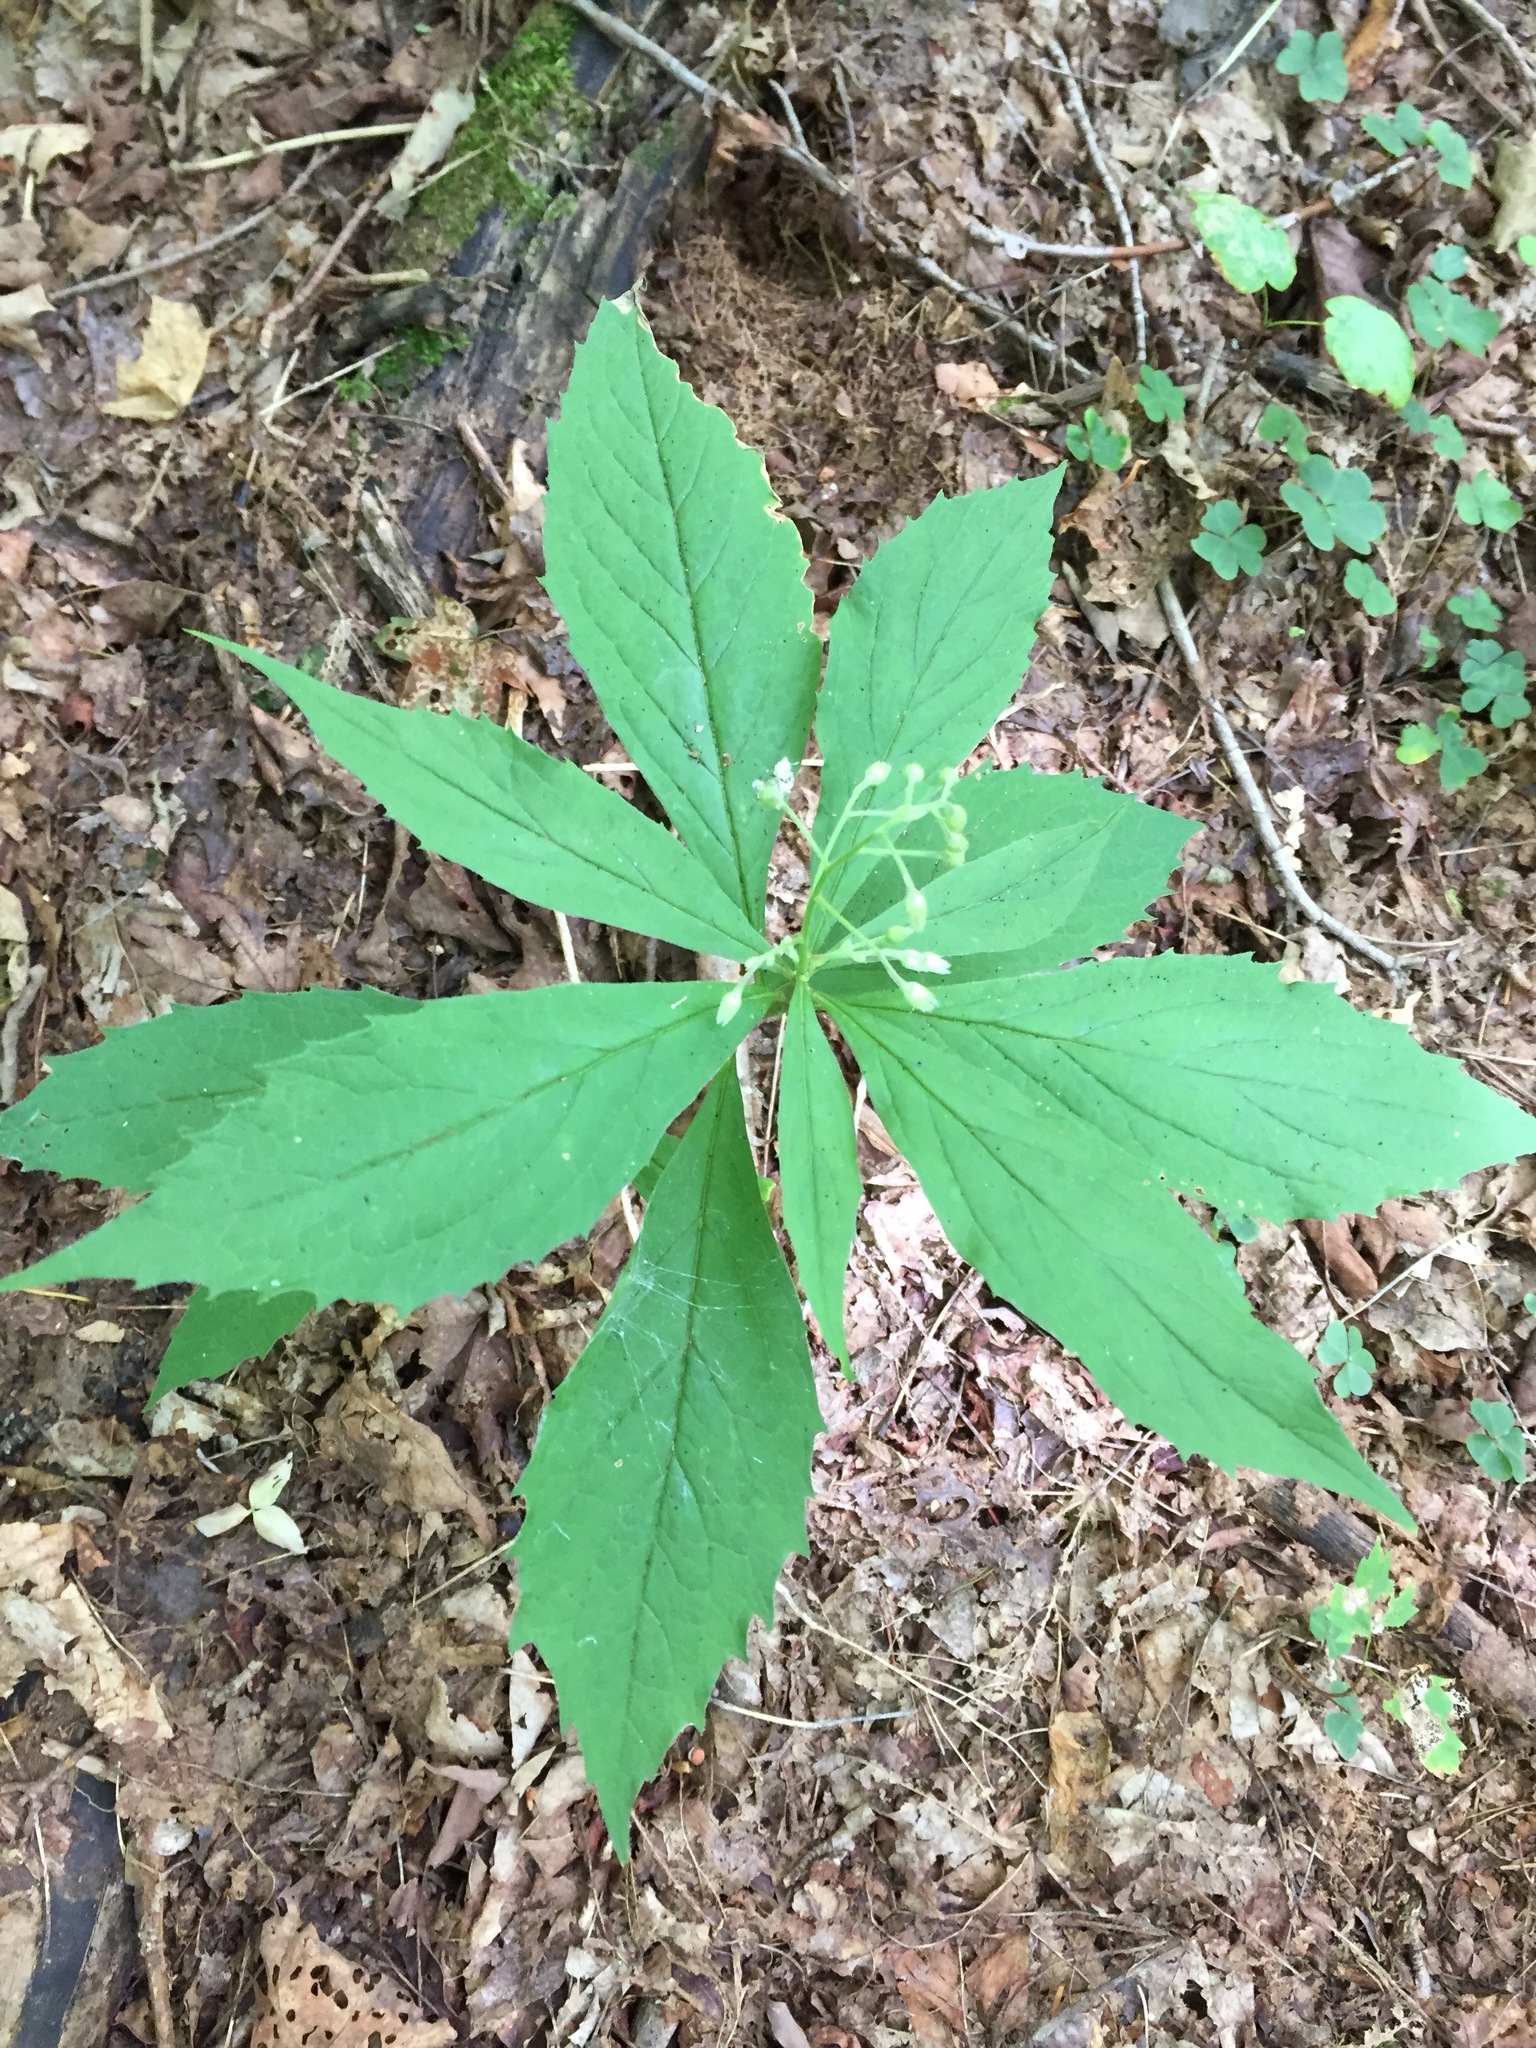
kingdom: Plantae
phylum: Tracheophyta
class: Magnoliopsida
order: Asterales
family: Asteraceae
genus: Oclemena
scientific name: Oclemena acuminata
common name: Mountain aster
